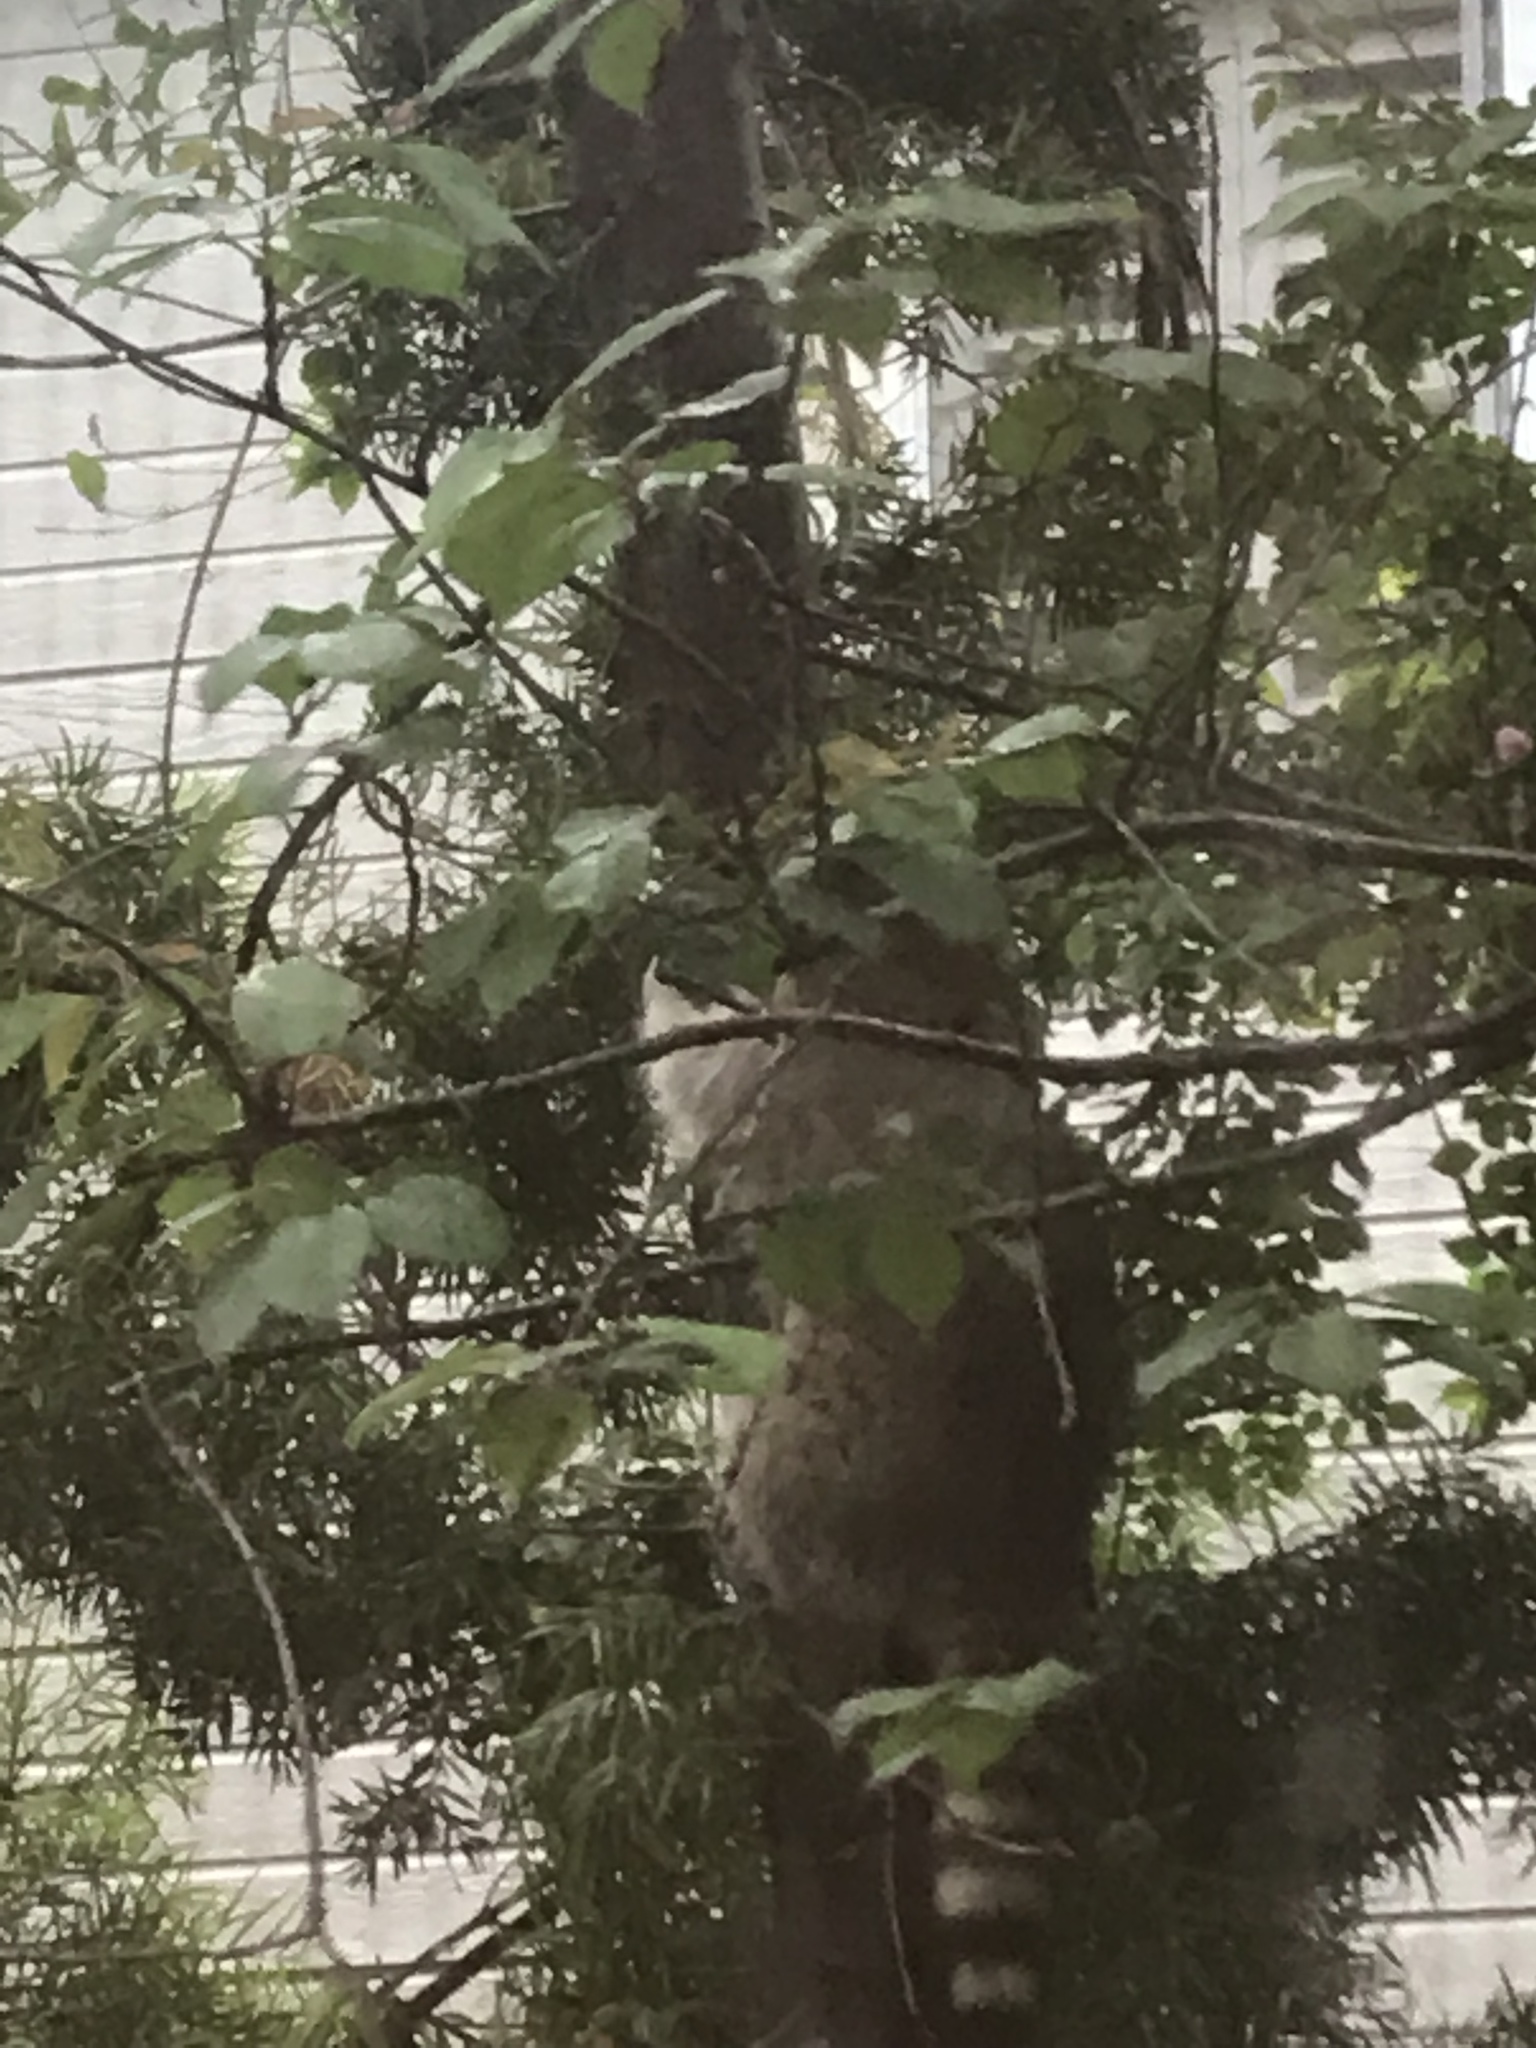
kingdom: Animalia
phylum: Chordata
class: Mammalia
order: Carnivora
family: Procyonidae
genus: Procyon
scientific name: Procyon lotor
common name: Raccoon
